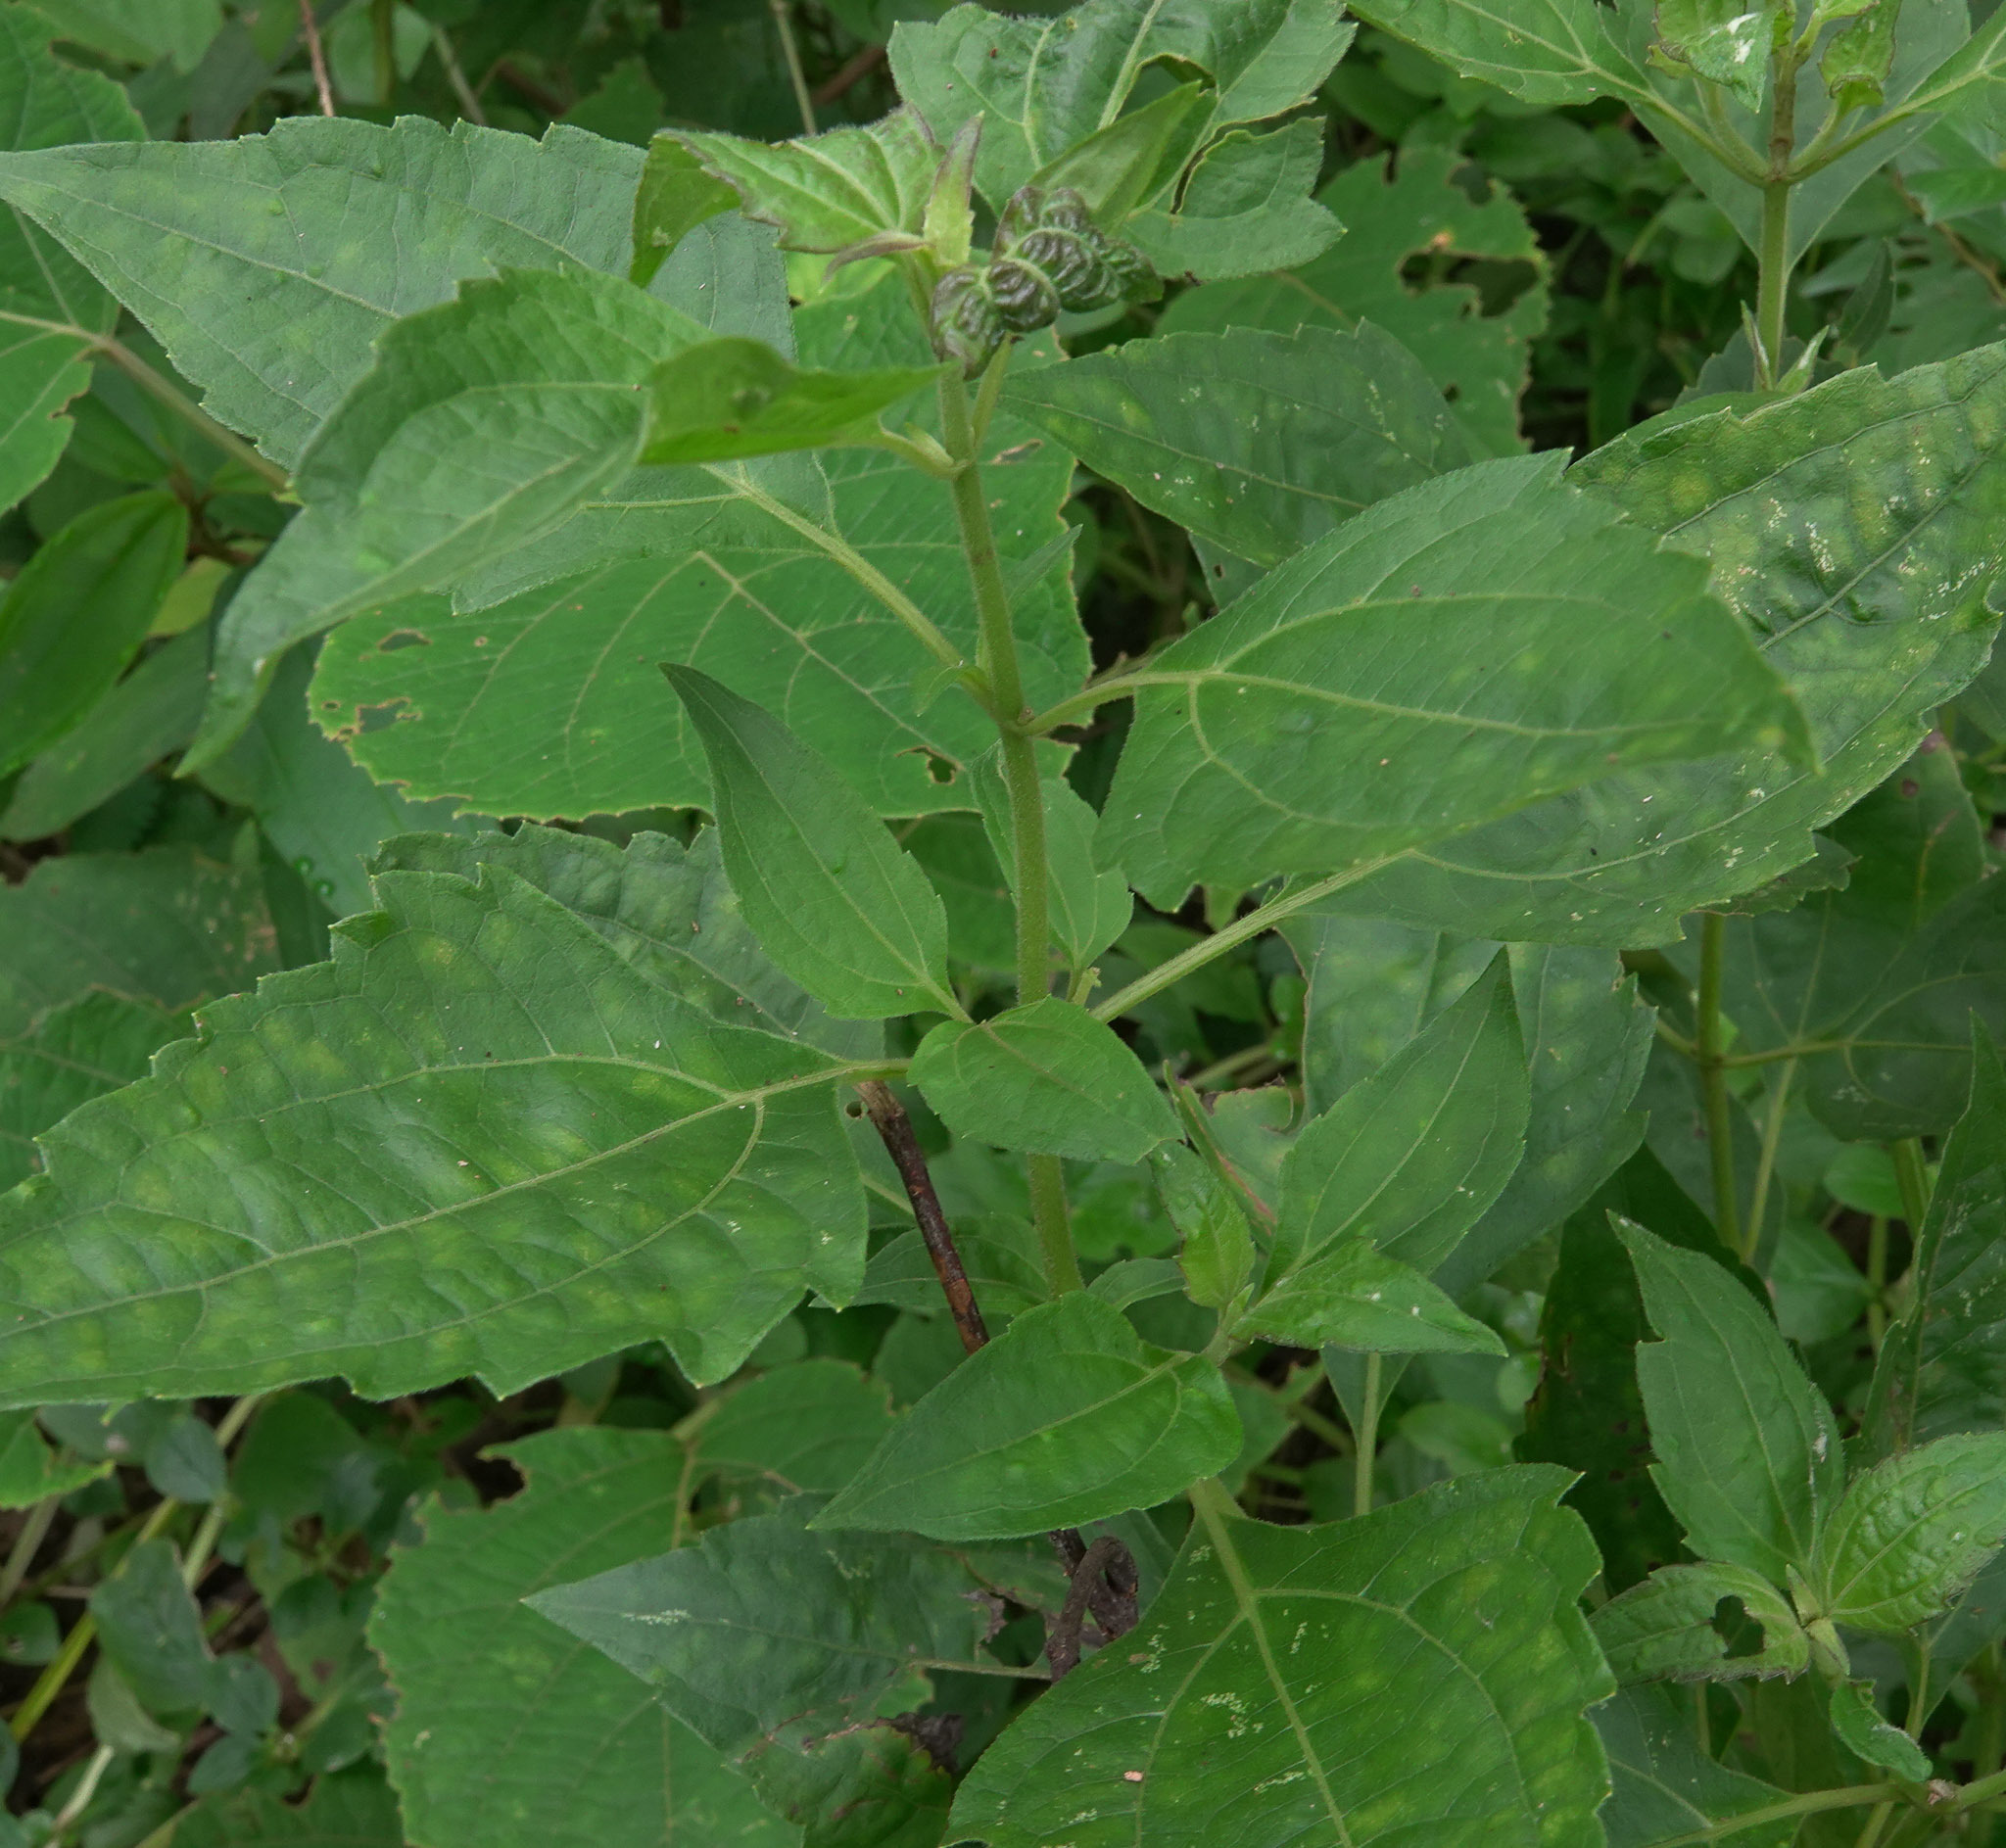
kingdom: Plantae
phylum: Tracheophyta
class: Magnoliopsida
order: Asterales
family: Asteraceae
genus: Chromolaena
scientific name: Chromolaena odorata
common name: Siamweed
